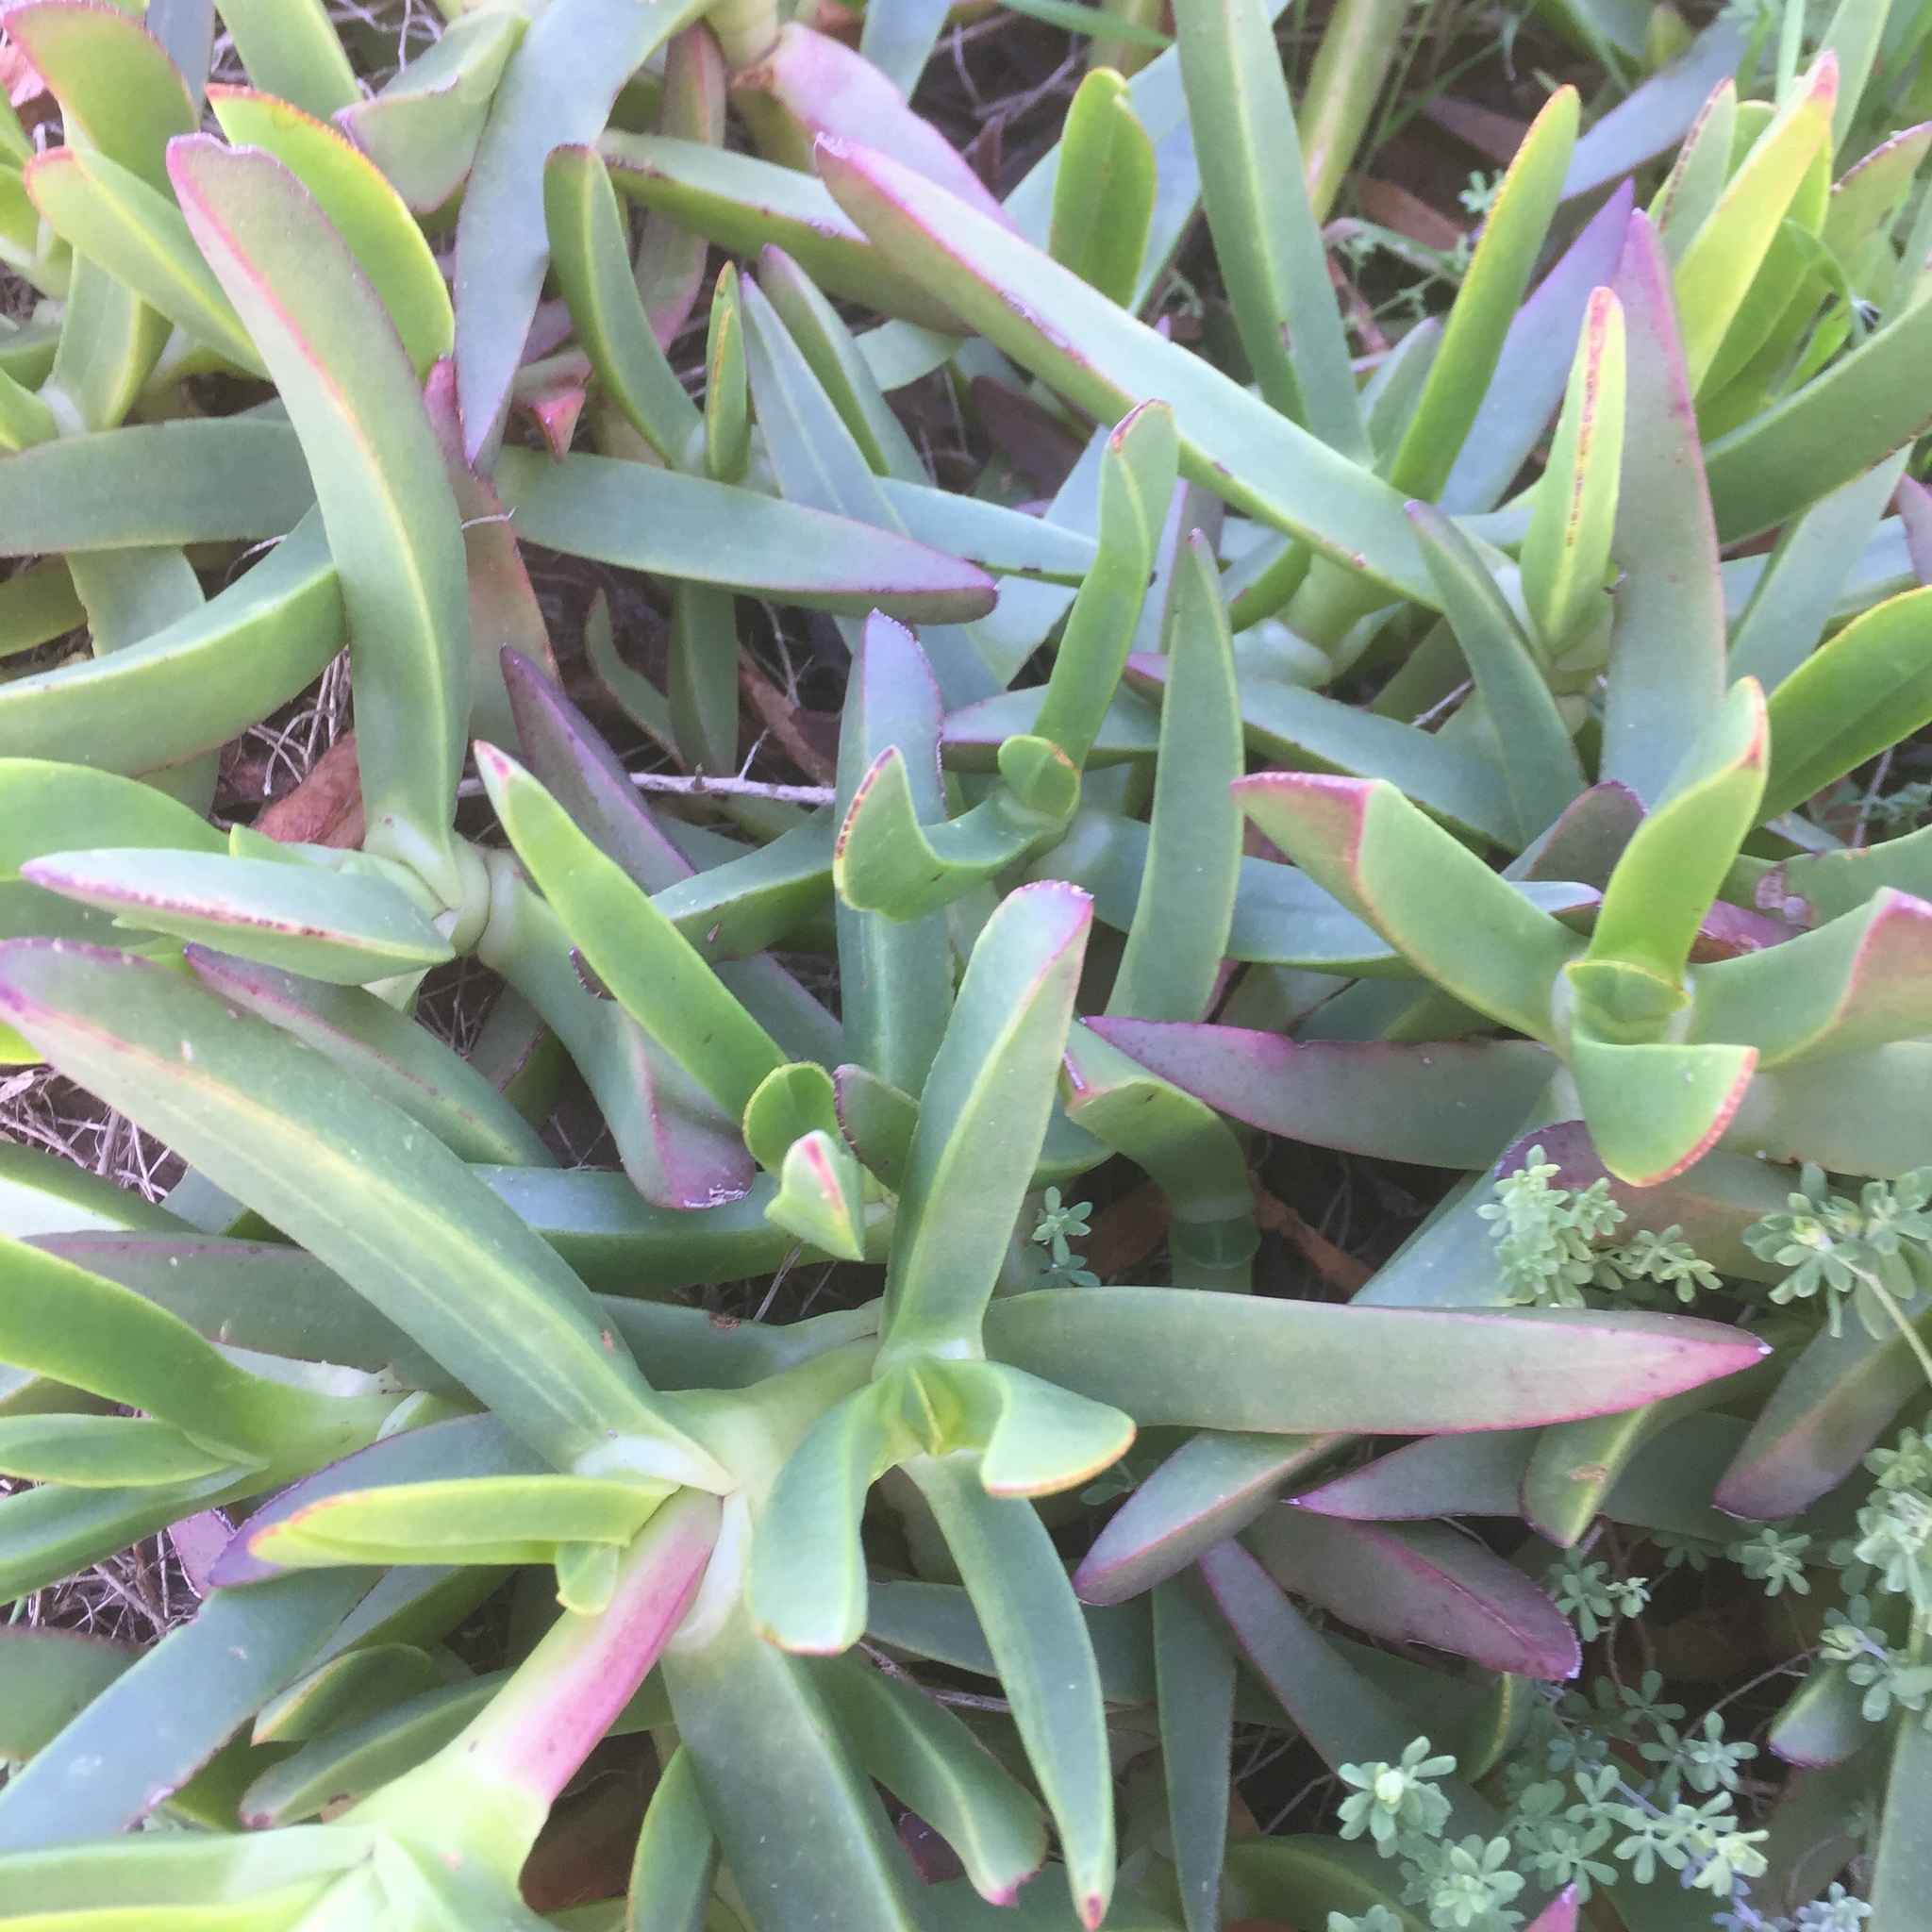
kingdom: Plantae
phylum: Tracheophyta
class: Magnoliopsida
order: Caryophyllales
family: Aizoaceae
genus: Carpobrotus
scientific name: Carpobrotus edulis
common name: Hottentot-fig
